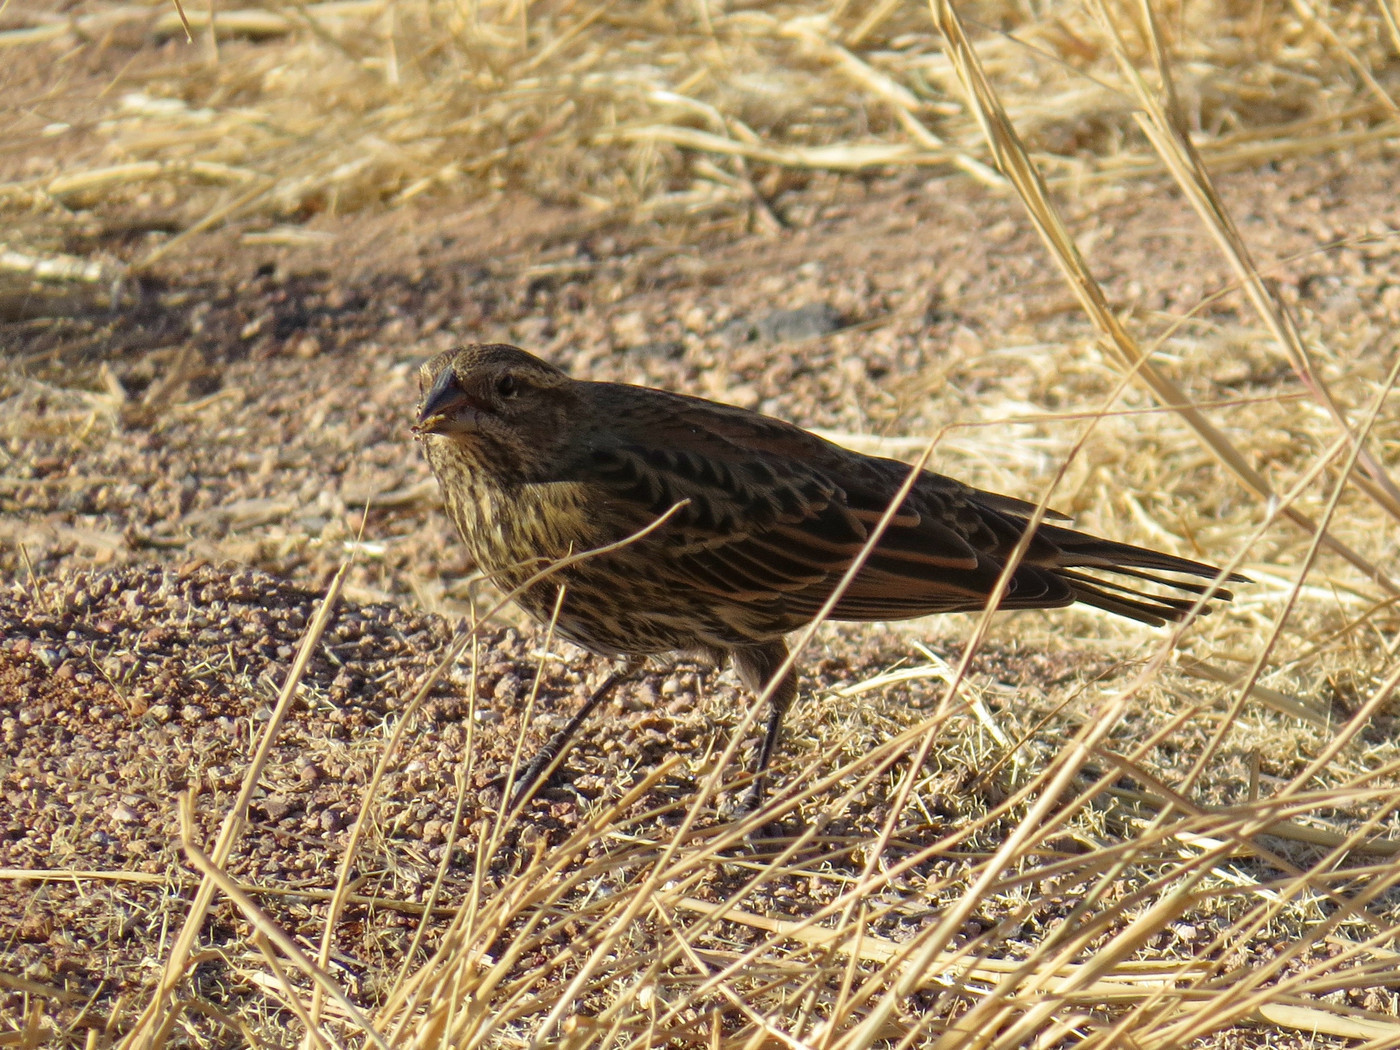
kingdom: Animalia
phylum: Chordata
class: Aves
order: Passeriformes
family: Icteridae
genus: Agelaius
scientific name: Agelaius phoeniceus
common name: Red-winged blackbird
